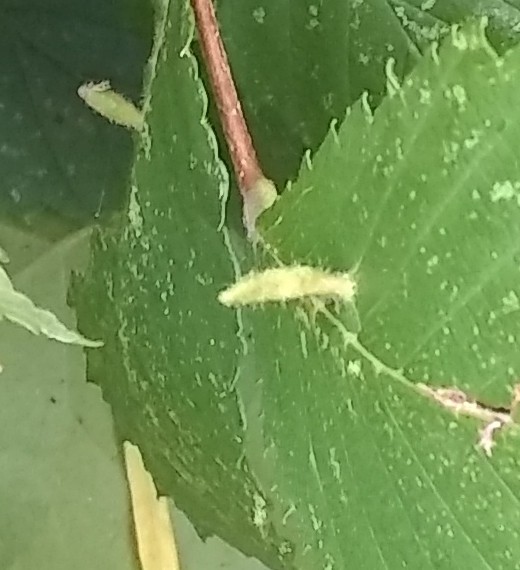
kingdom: Animalia
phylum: Arthropoda
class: Arachnida
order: Trombidiformes
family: Eriophyidae
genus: Aceria
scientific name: Aceria
